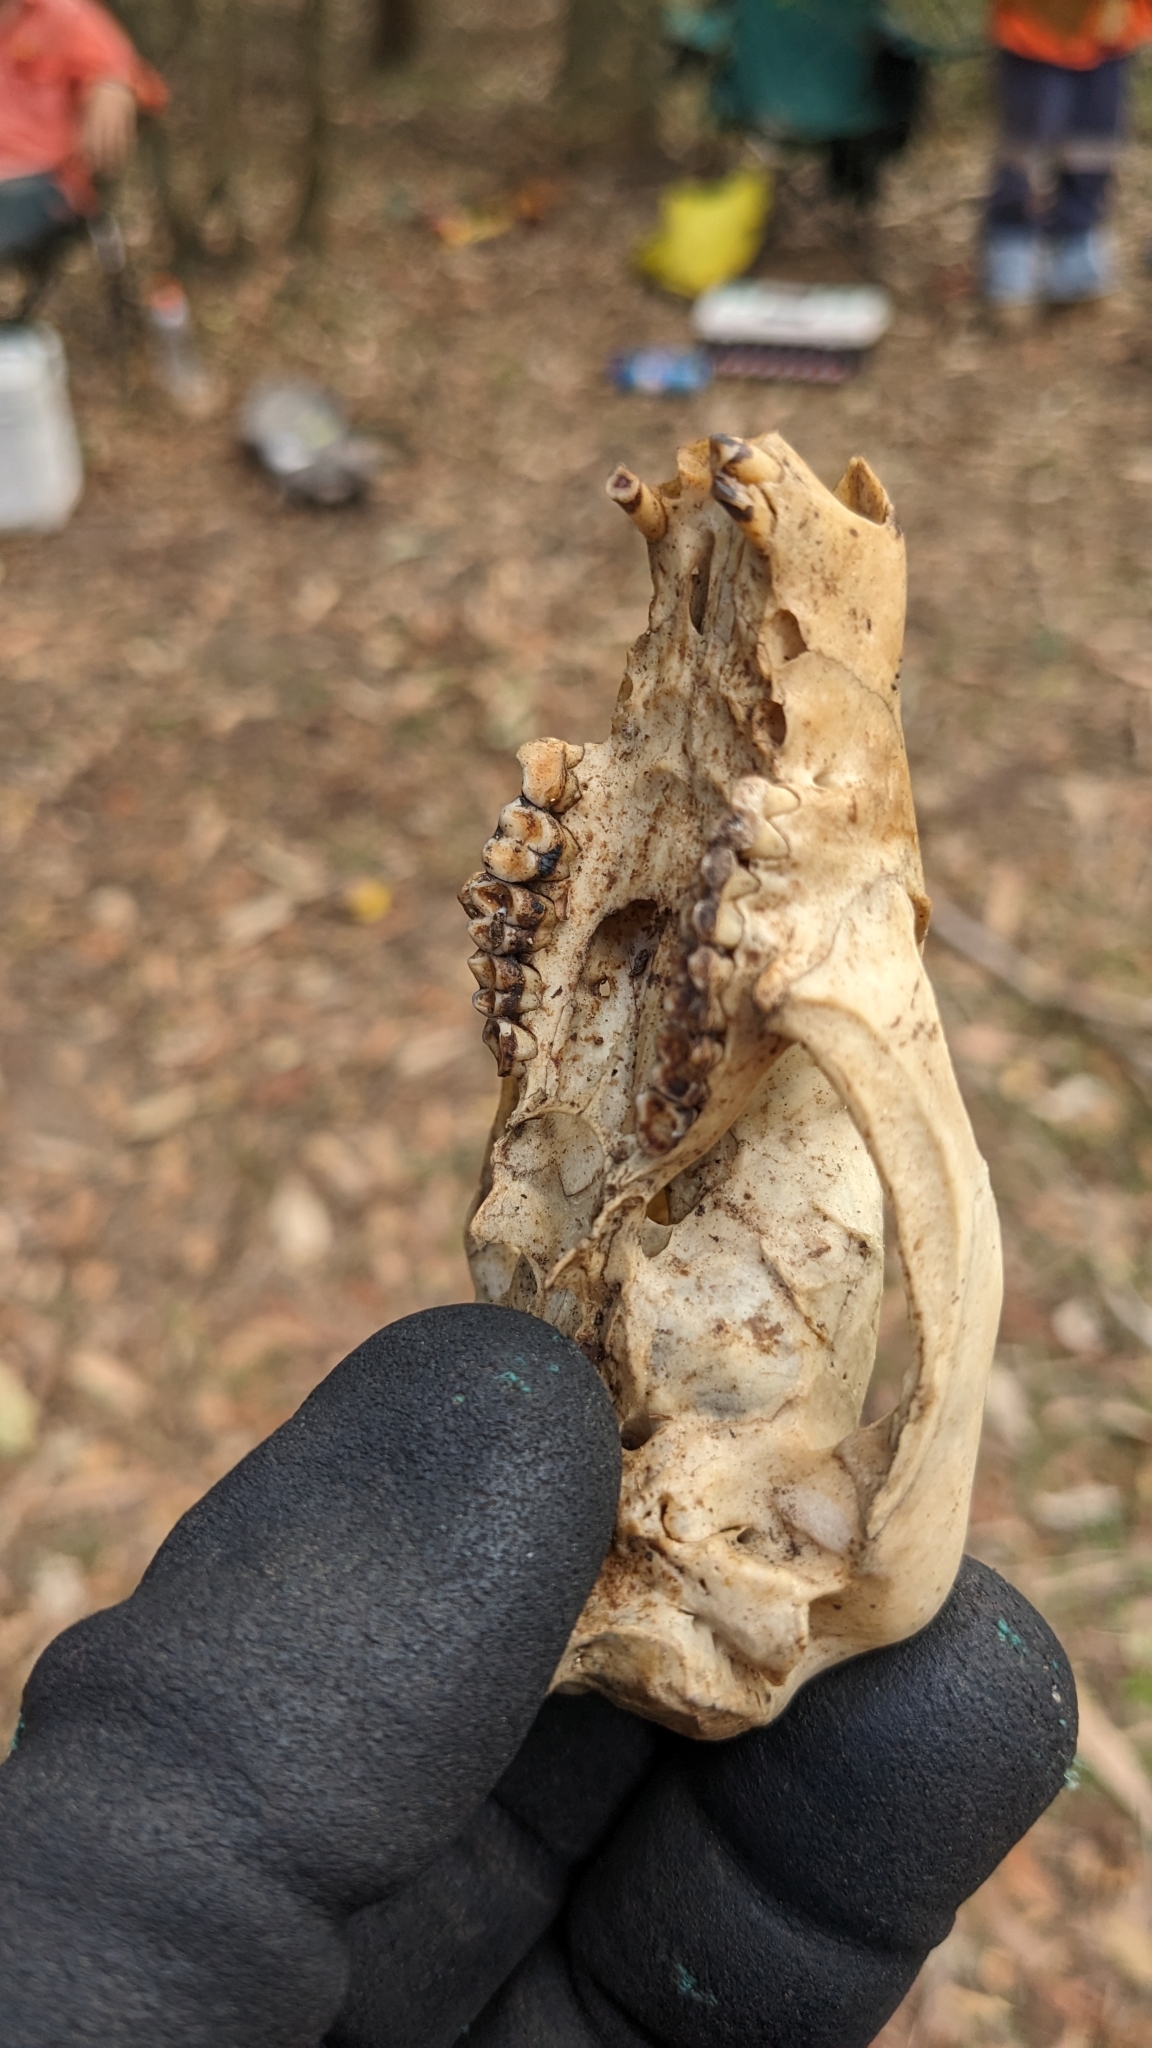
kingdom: Animalia
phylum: Chordata
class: Mammalia
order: Diprotodontia
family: Phalangeridae
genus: Trichosurus
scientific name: Trichosurus vulpecula
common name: Common brushtail
